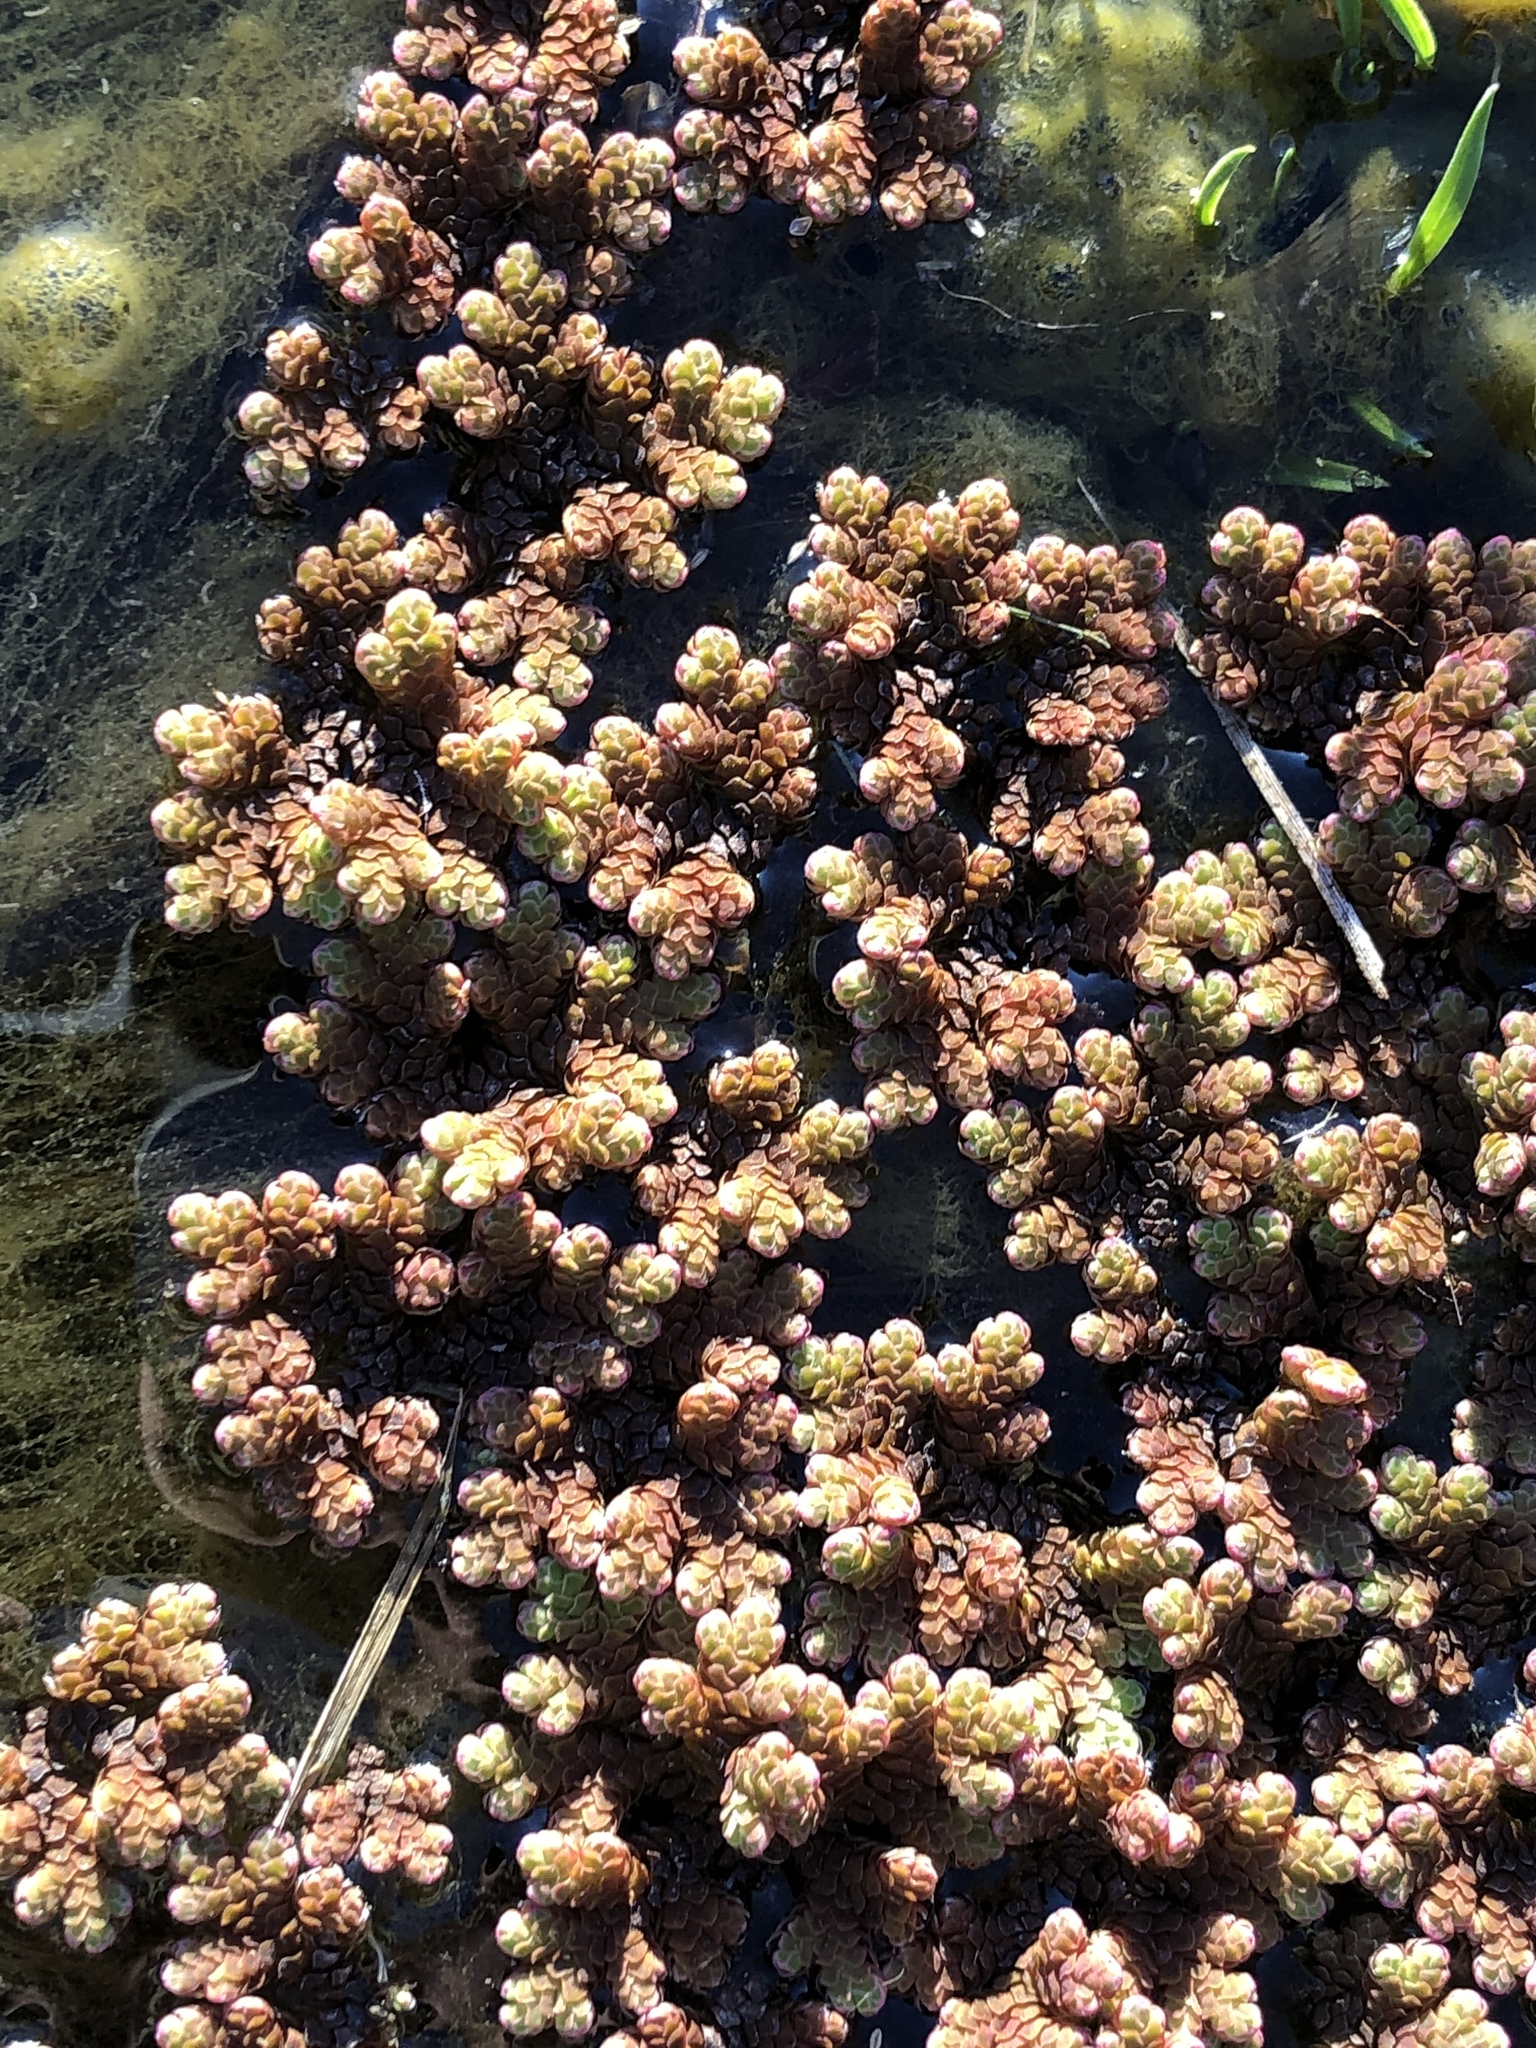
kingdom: Plantae
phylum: Tracheophyta
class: Polypodiopsida
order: Salviniales
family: Salviniaceae
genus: Azolla
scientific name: Azolla rubra
